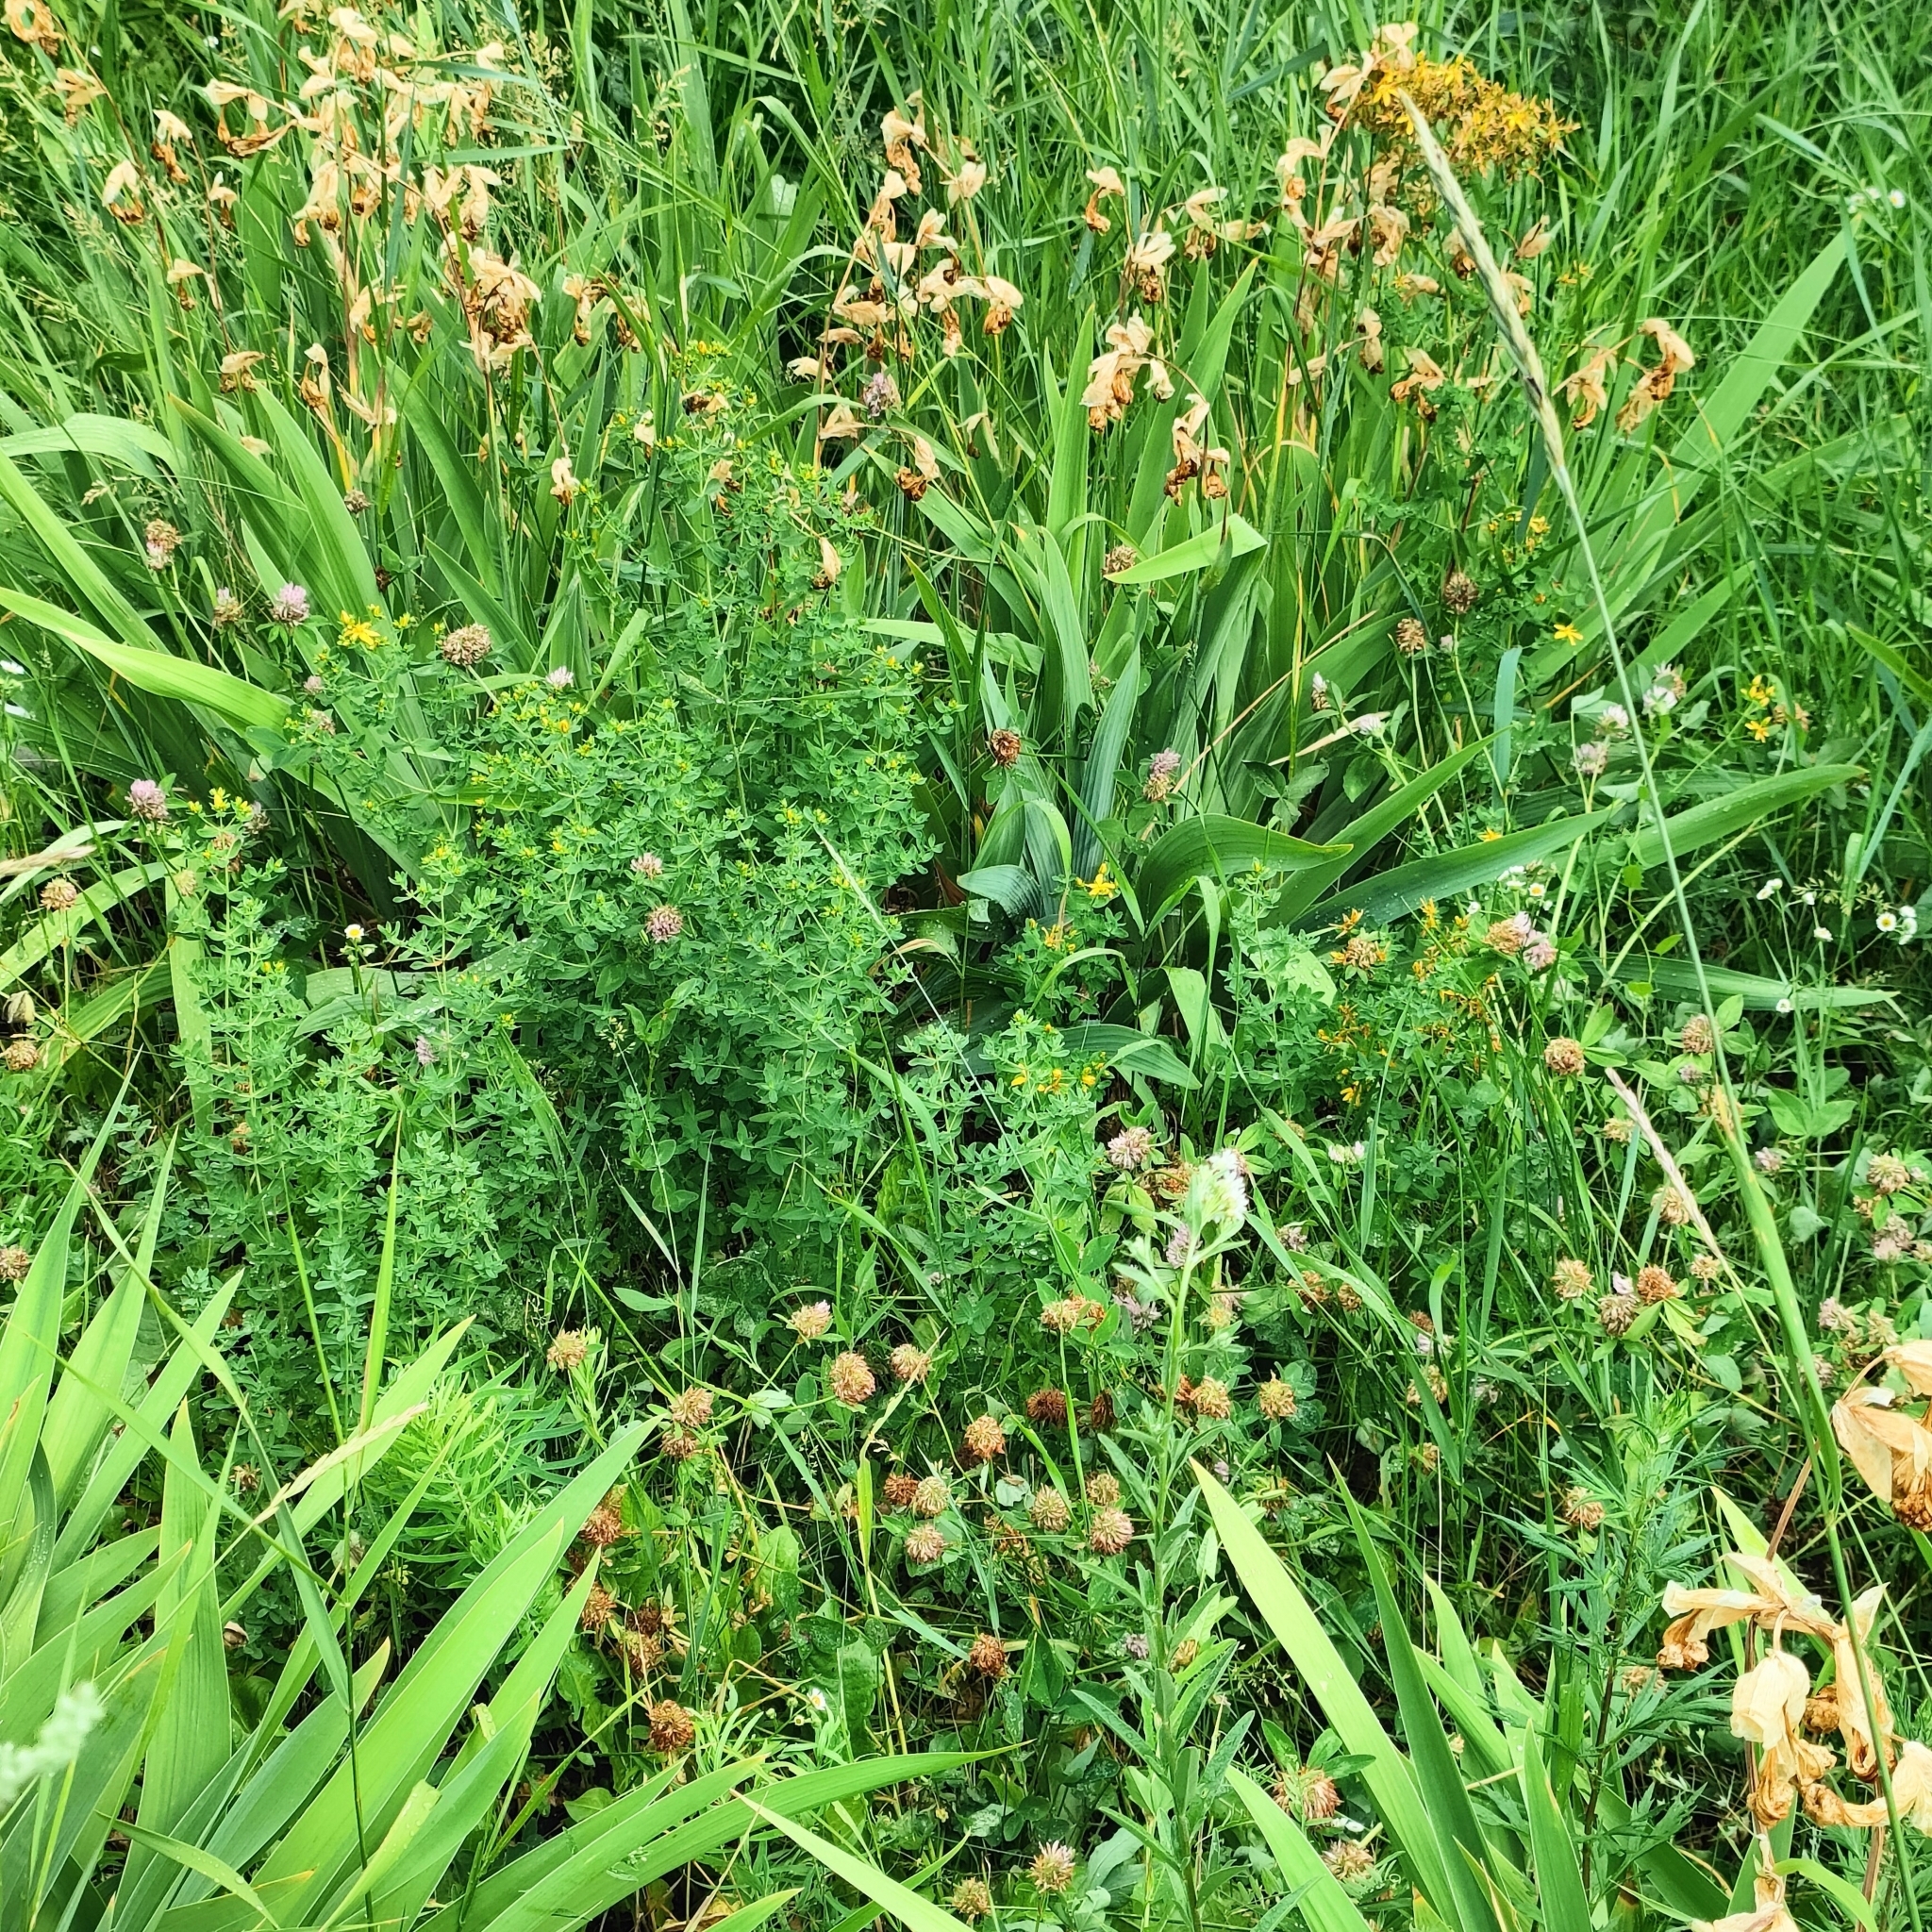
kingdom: Plantae
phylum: Tracheophyta
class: Magnoliopsida
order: Malpighiales
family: Hypericaceae
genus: Hypericum
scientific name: Hypericum perforatum
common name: Common st. johnswort
